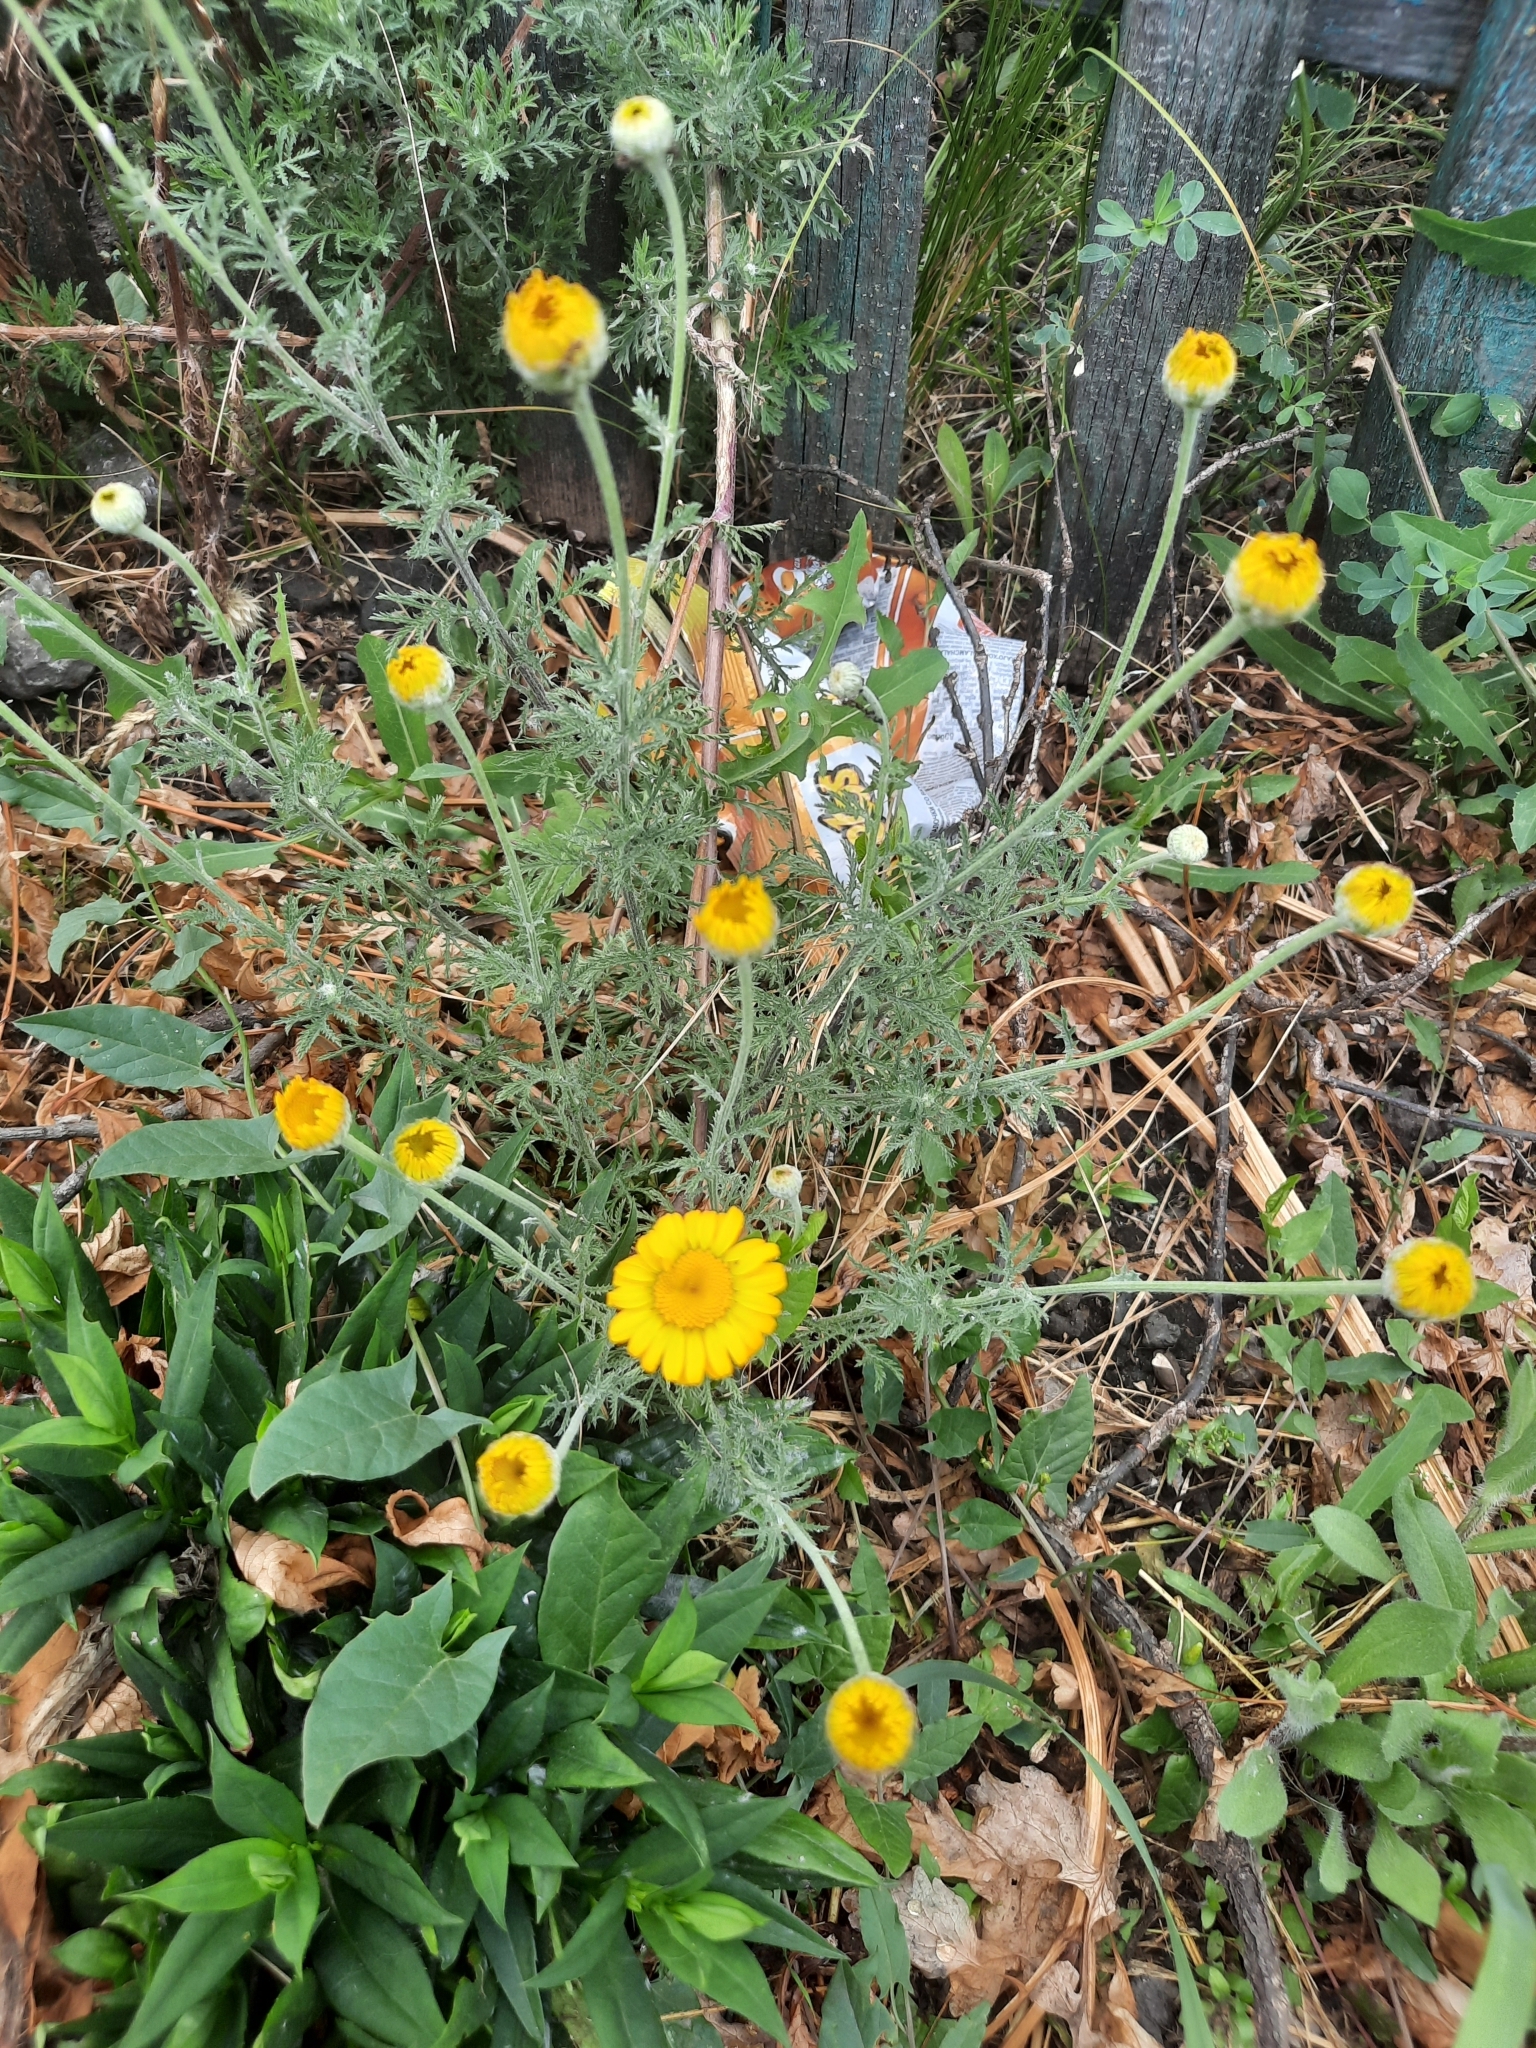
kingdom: Plantae
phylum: Tracheophyta
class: Magnoliopsida
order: Asterales
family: Asteraceae
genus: Cota
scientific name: Cota tinctoria
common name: Golden chamomile
